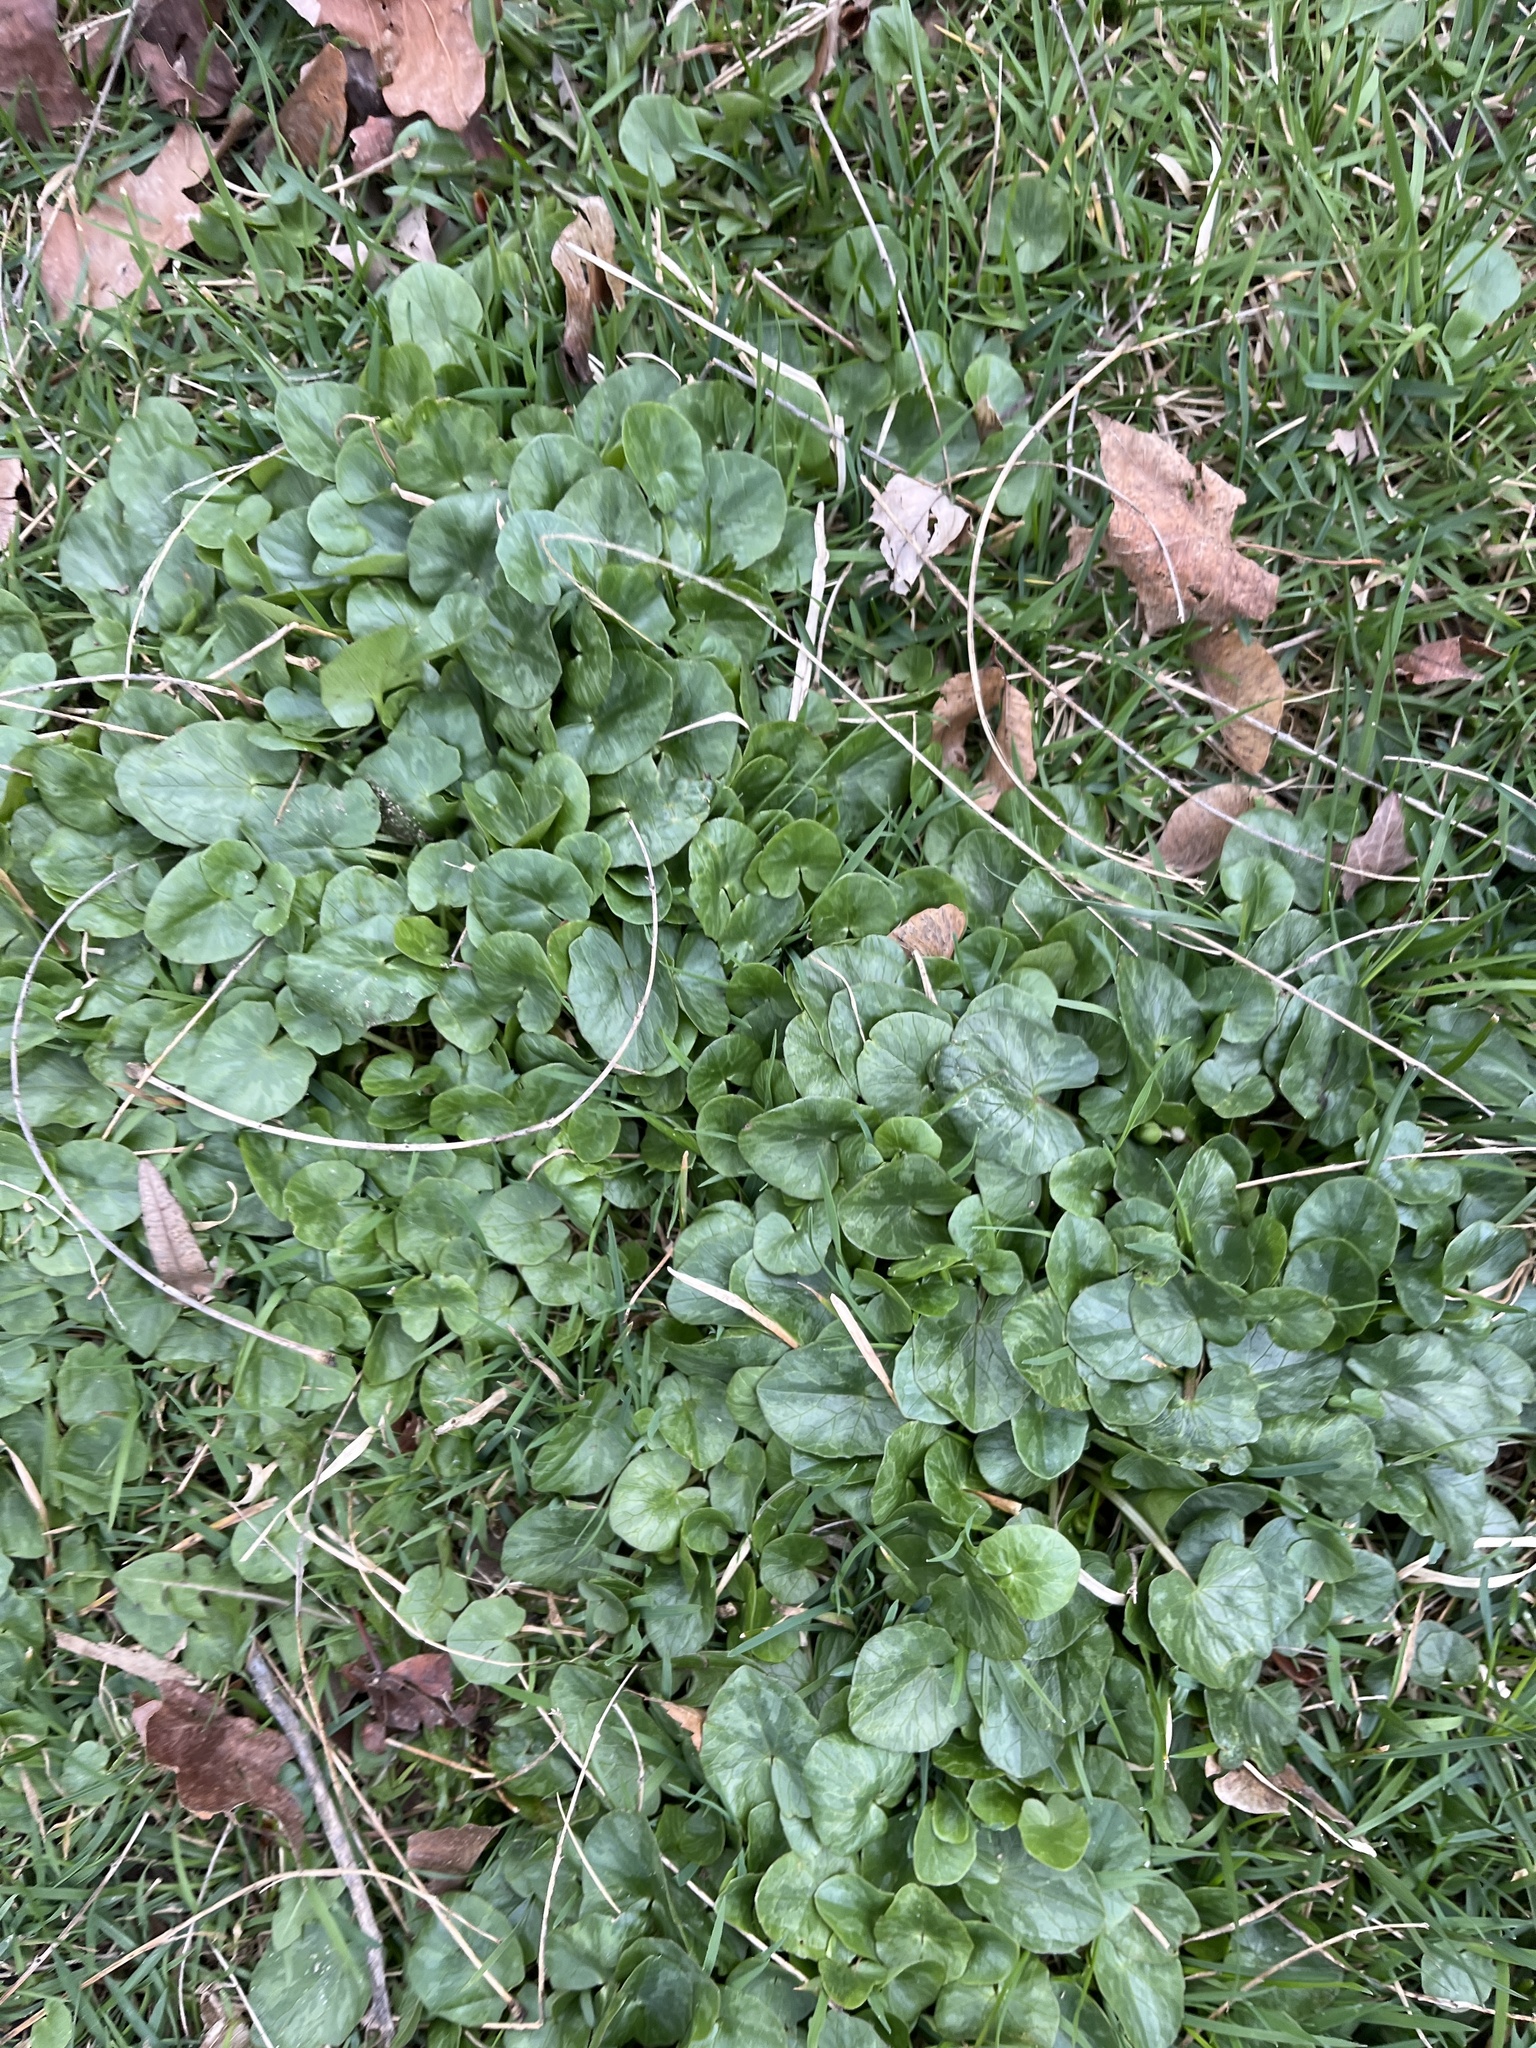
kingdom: Plantae
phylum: Tracheophyta
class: Magnoliopsida
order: Ranunculales
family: Ranunculaceae
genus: Ficaria
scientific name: Ficaria verna
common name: Lesser celandine
